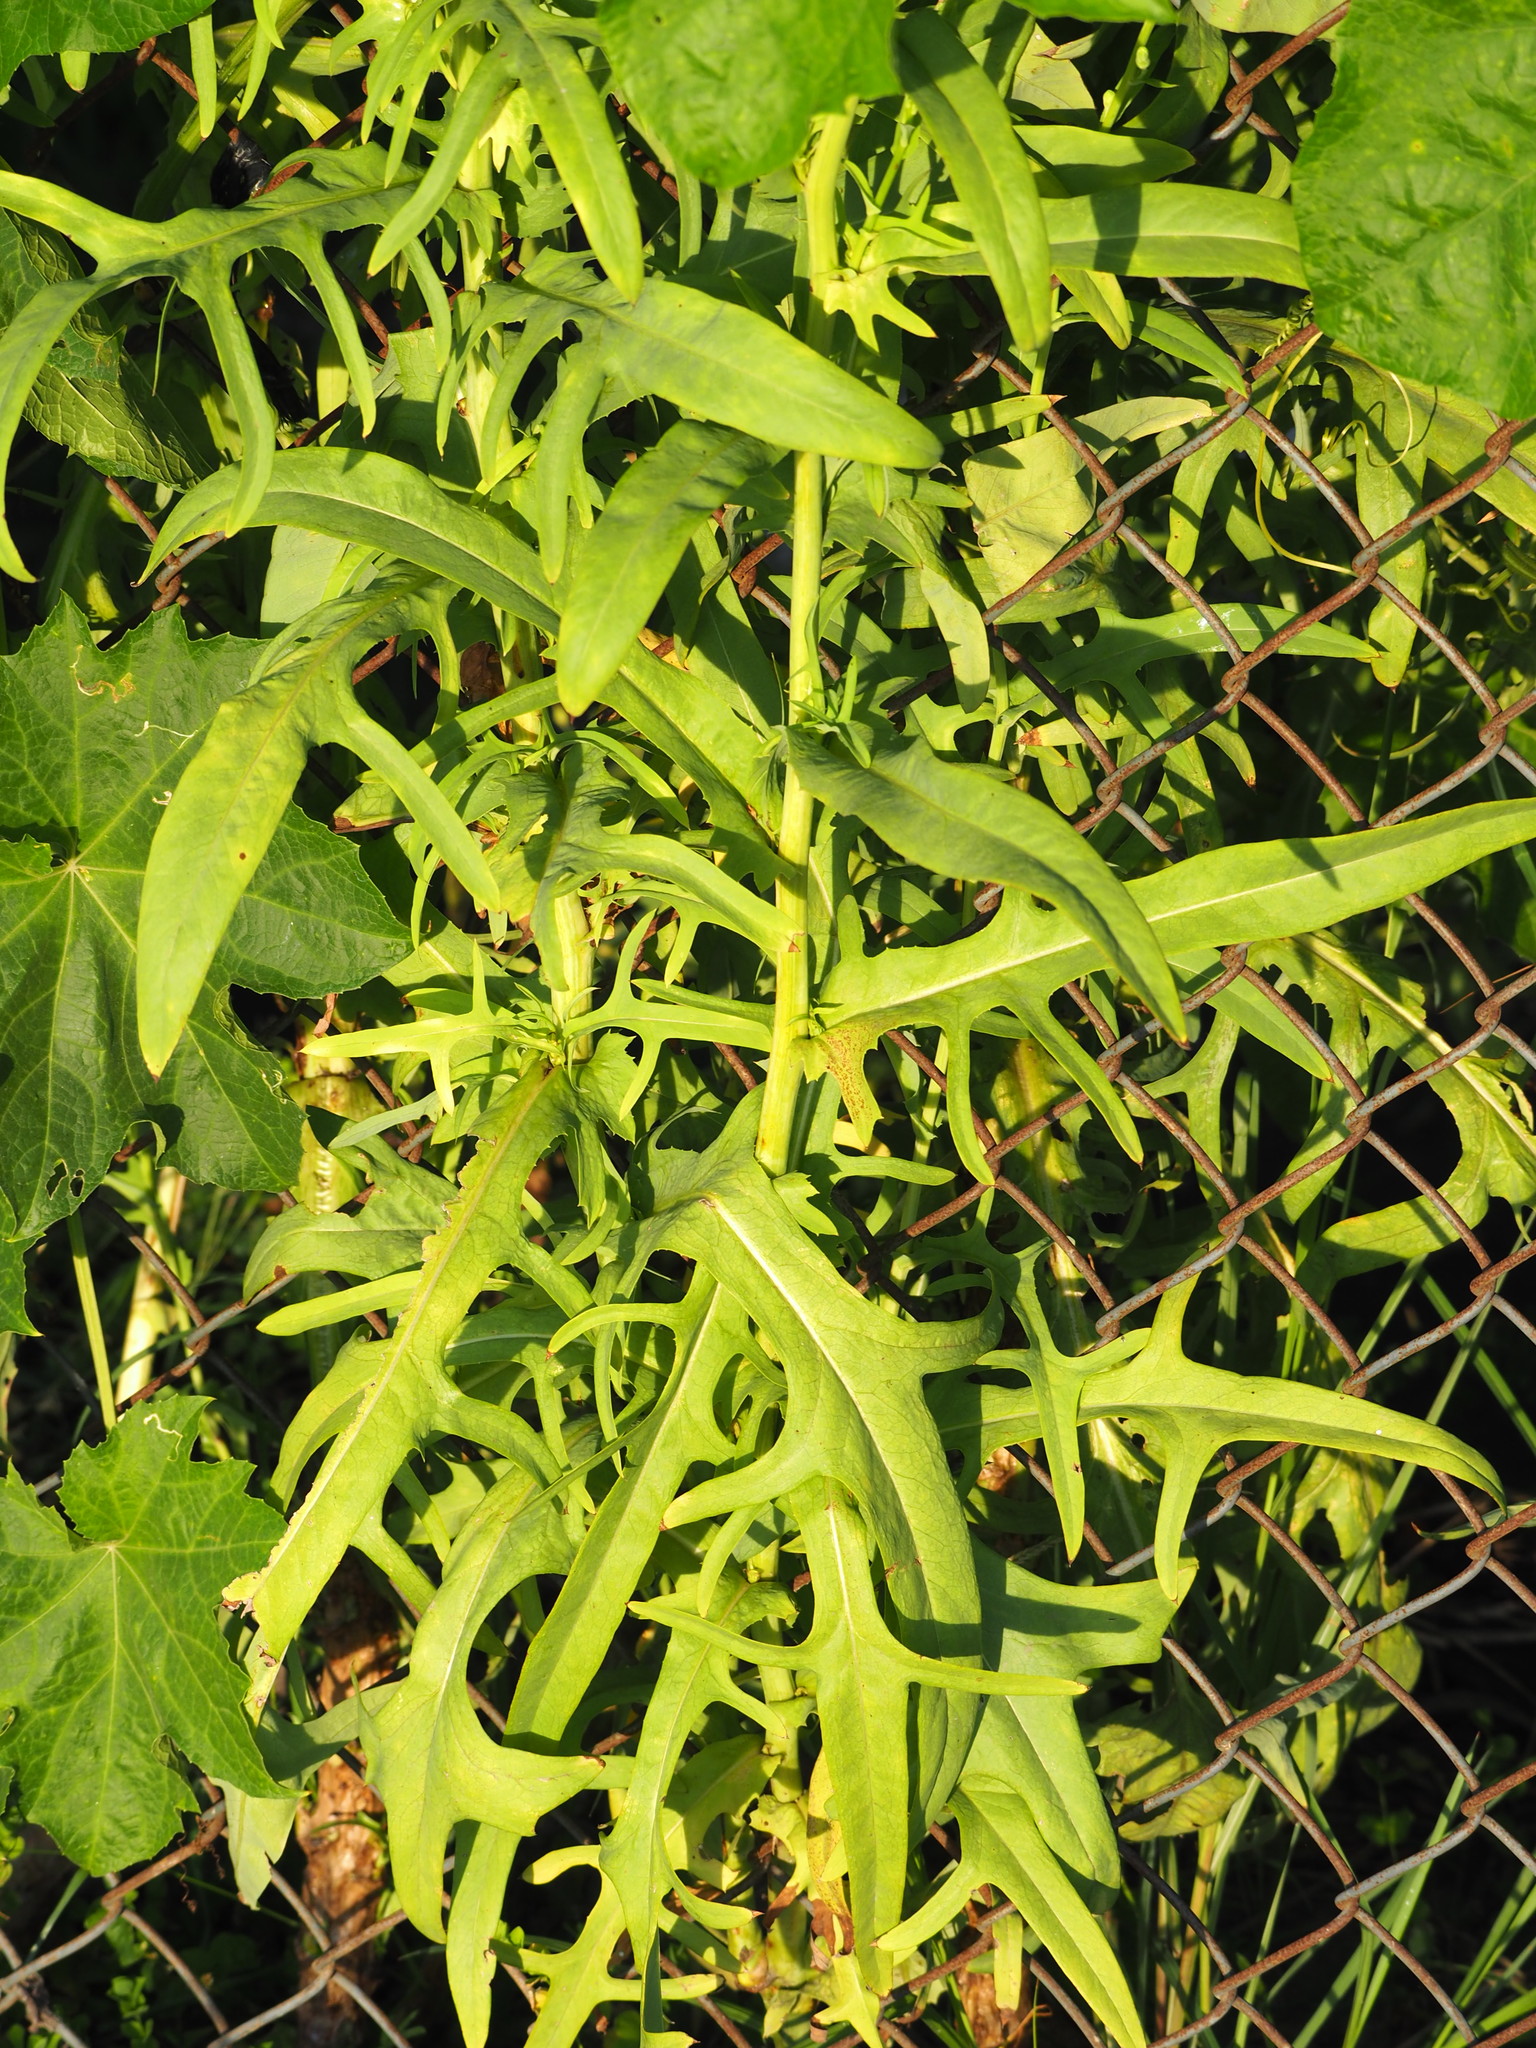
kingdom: Plantae
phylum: Tracheophyta
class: Magnoliopsida
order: Asterales
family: Asteraceae
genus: Lactuca
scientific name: Lactuca indica
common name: Wild lettuce
